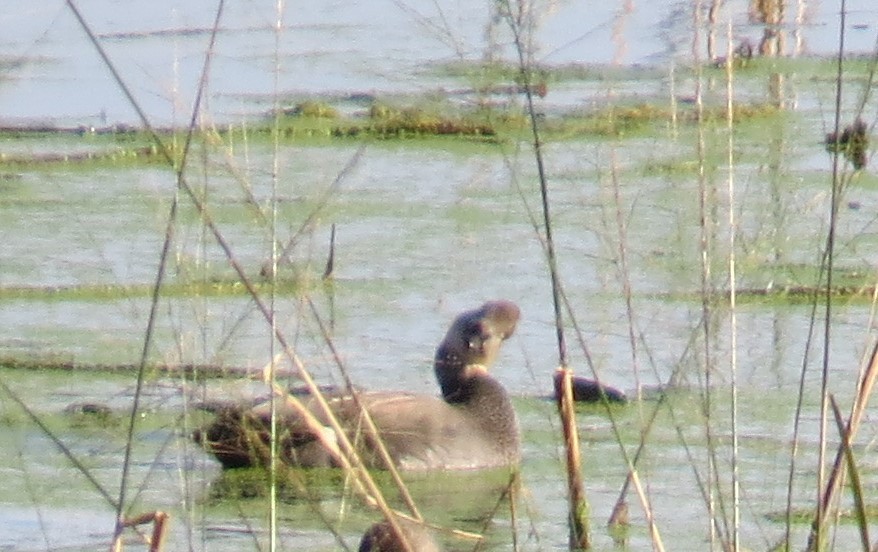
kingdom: Animalia
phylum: Chordata
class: Aves
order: Anseriformes
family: Anatidae
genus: Mareca
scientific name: Mareca strepera
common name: Gadwall
